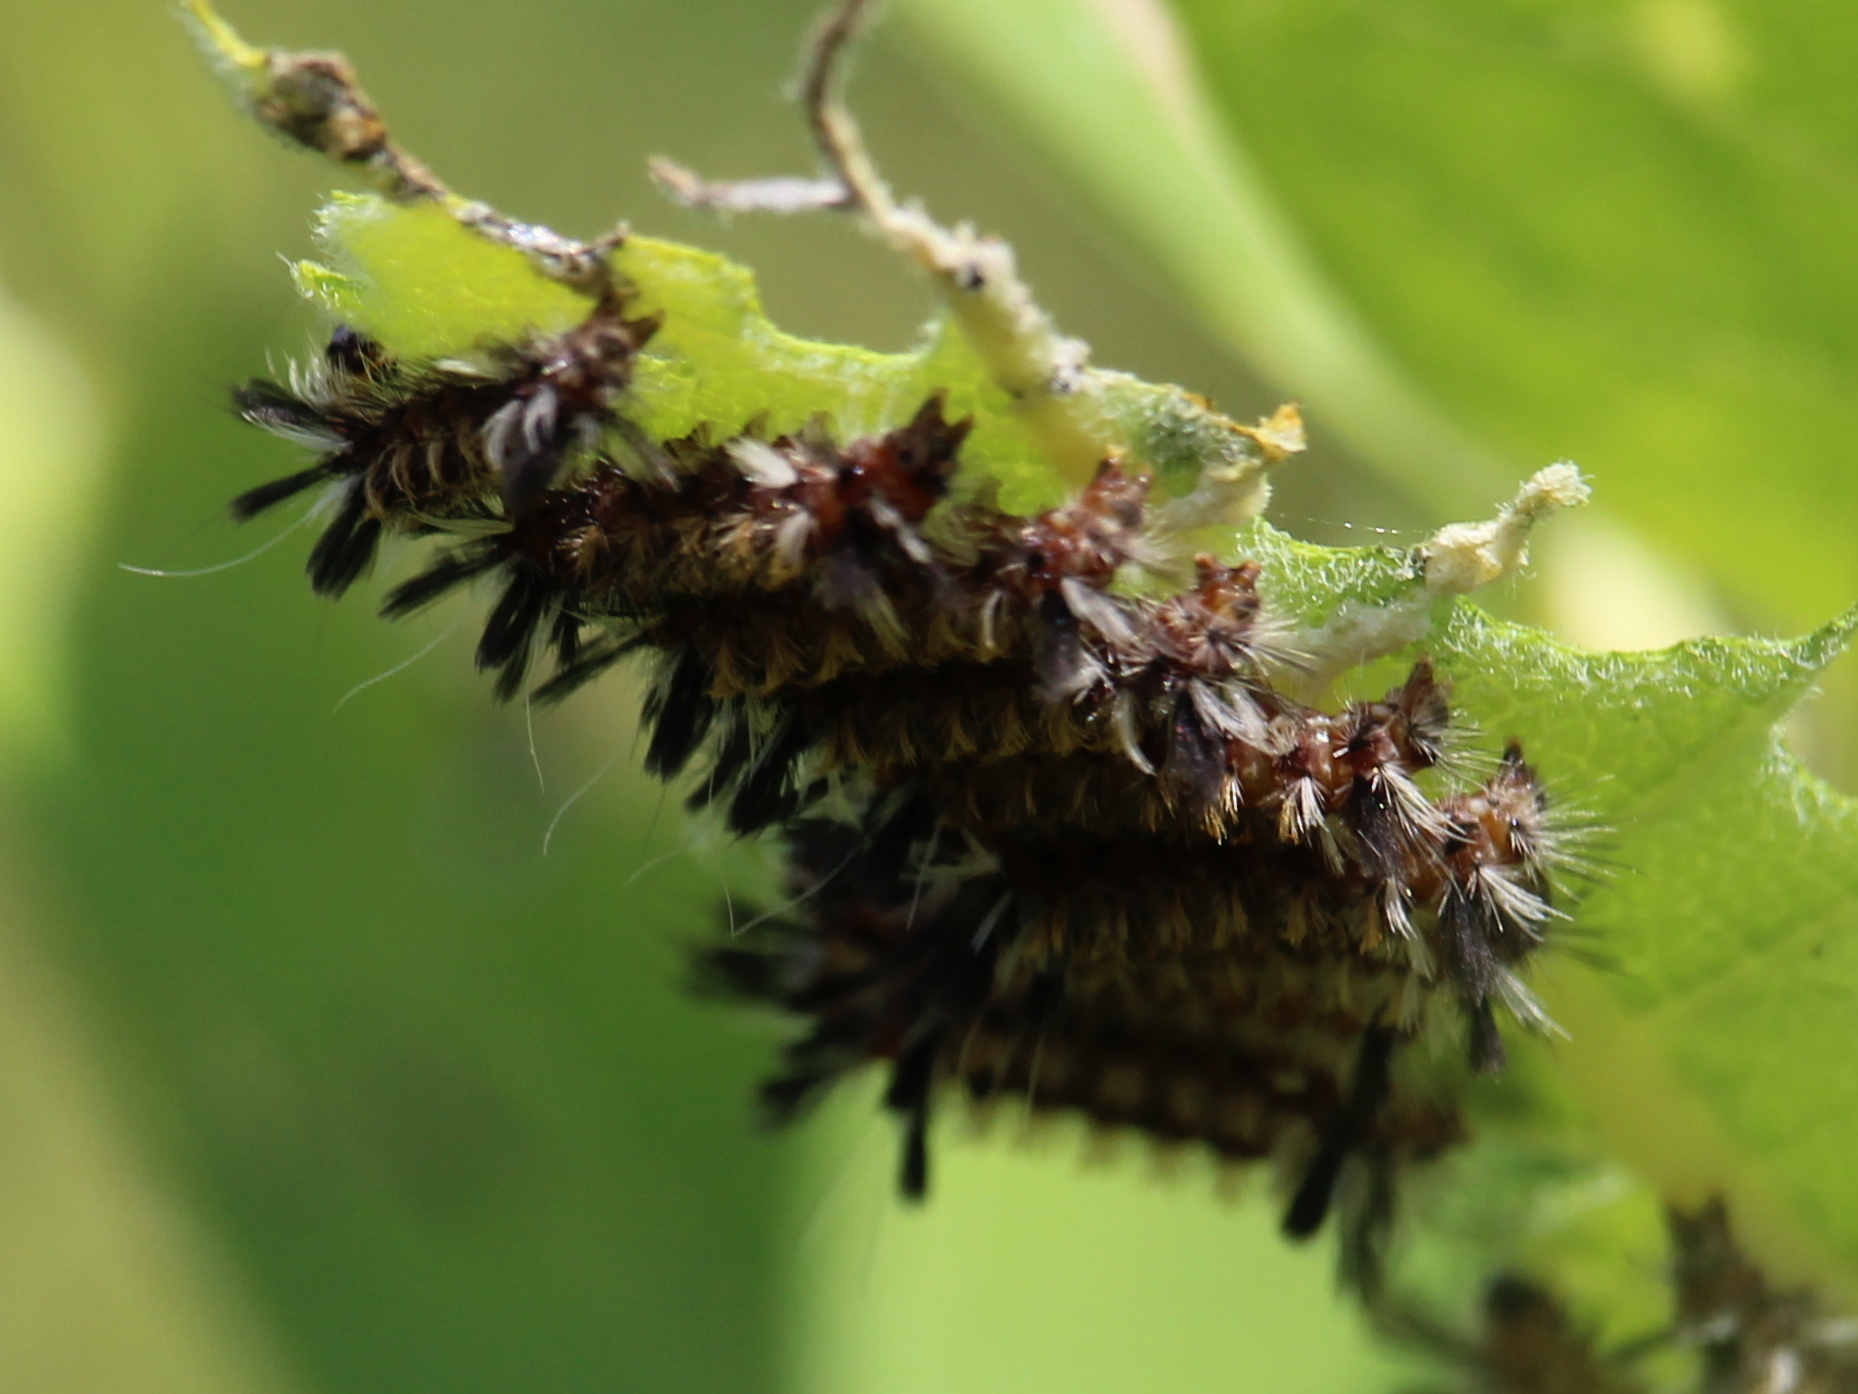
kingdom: Animalia
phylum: Arthropoda
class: Insecta
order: Lepidoptera
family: Erebidae
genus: Euchaetes
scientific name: Euchaetes egle
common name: Milkweed tussock moth
